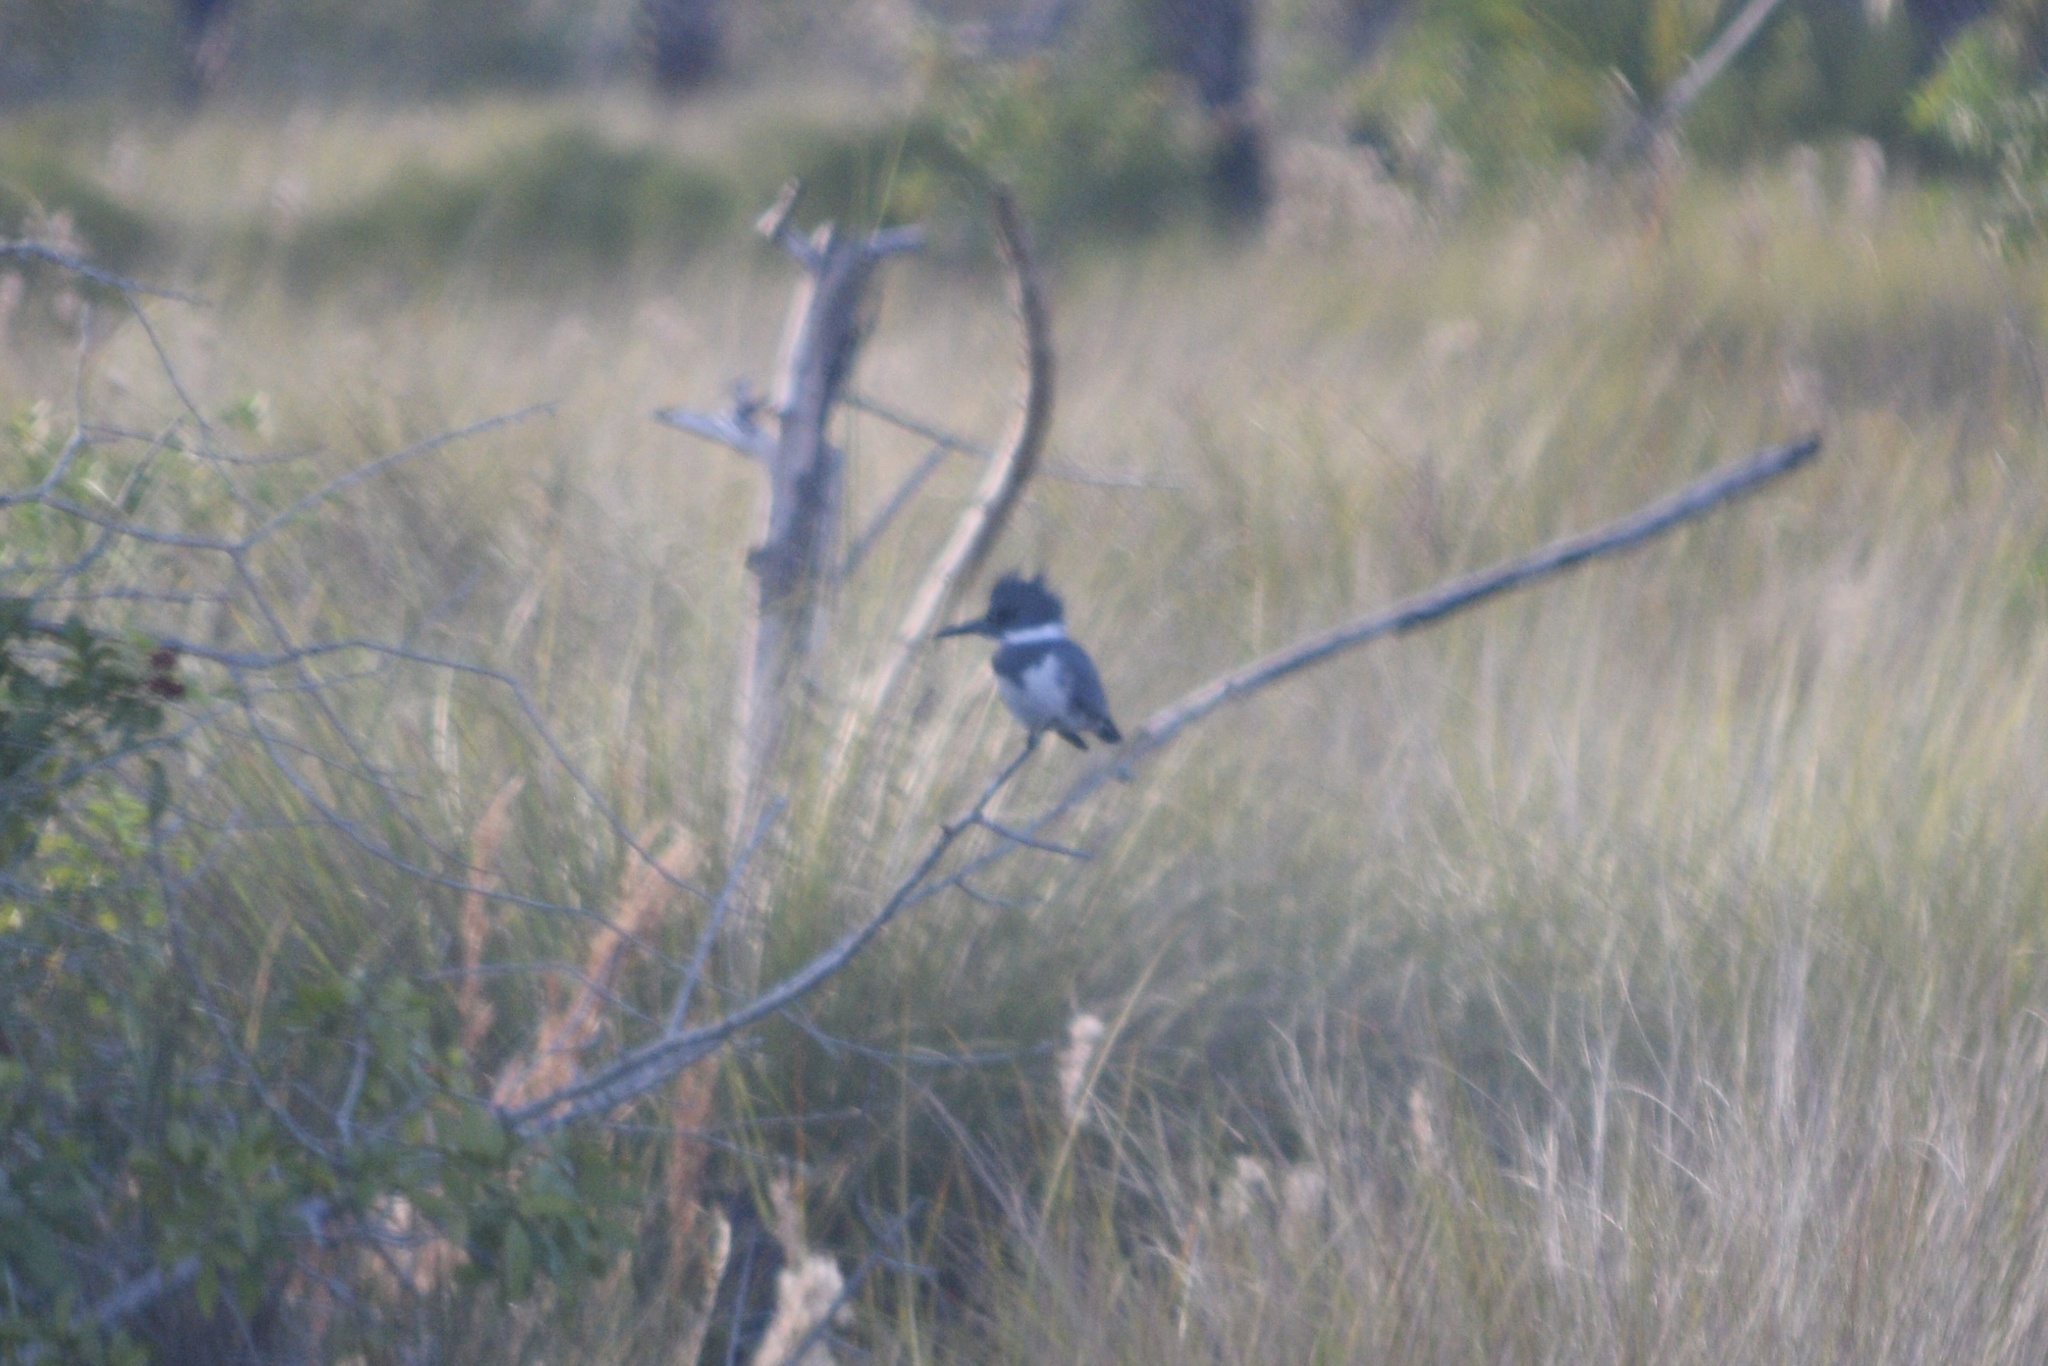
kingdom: Animalia
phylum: Chordata
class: Aves
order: Coraciiformes
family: Alcedinidae
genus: Megaceryle
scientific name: Megaceryle alcyon
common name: Belted kingfisher
